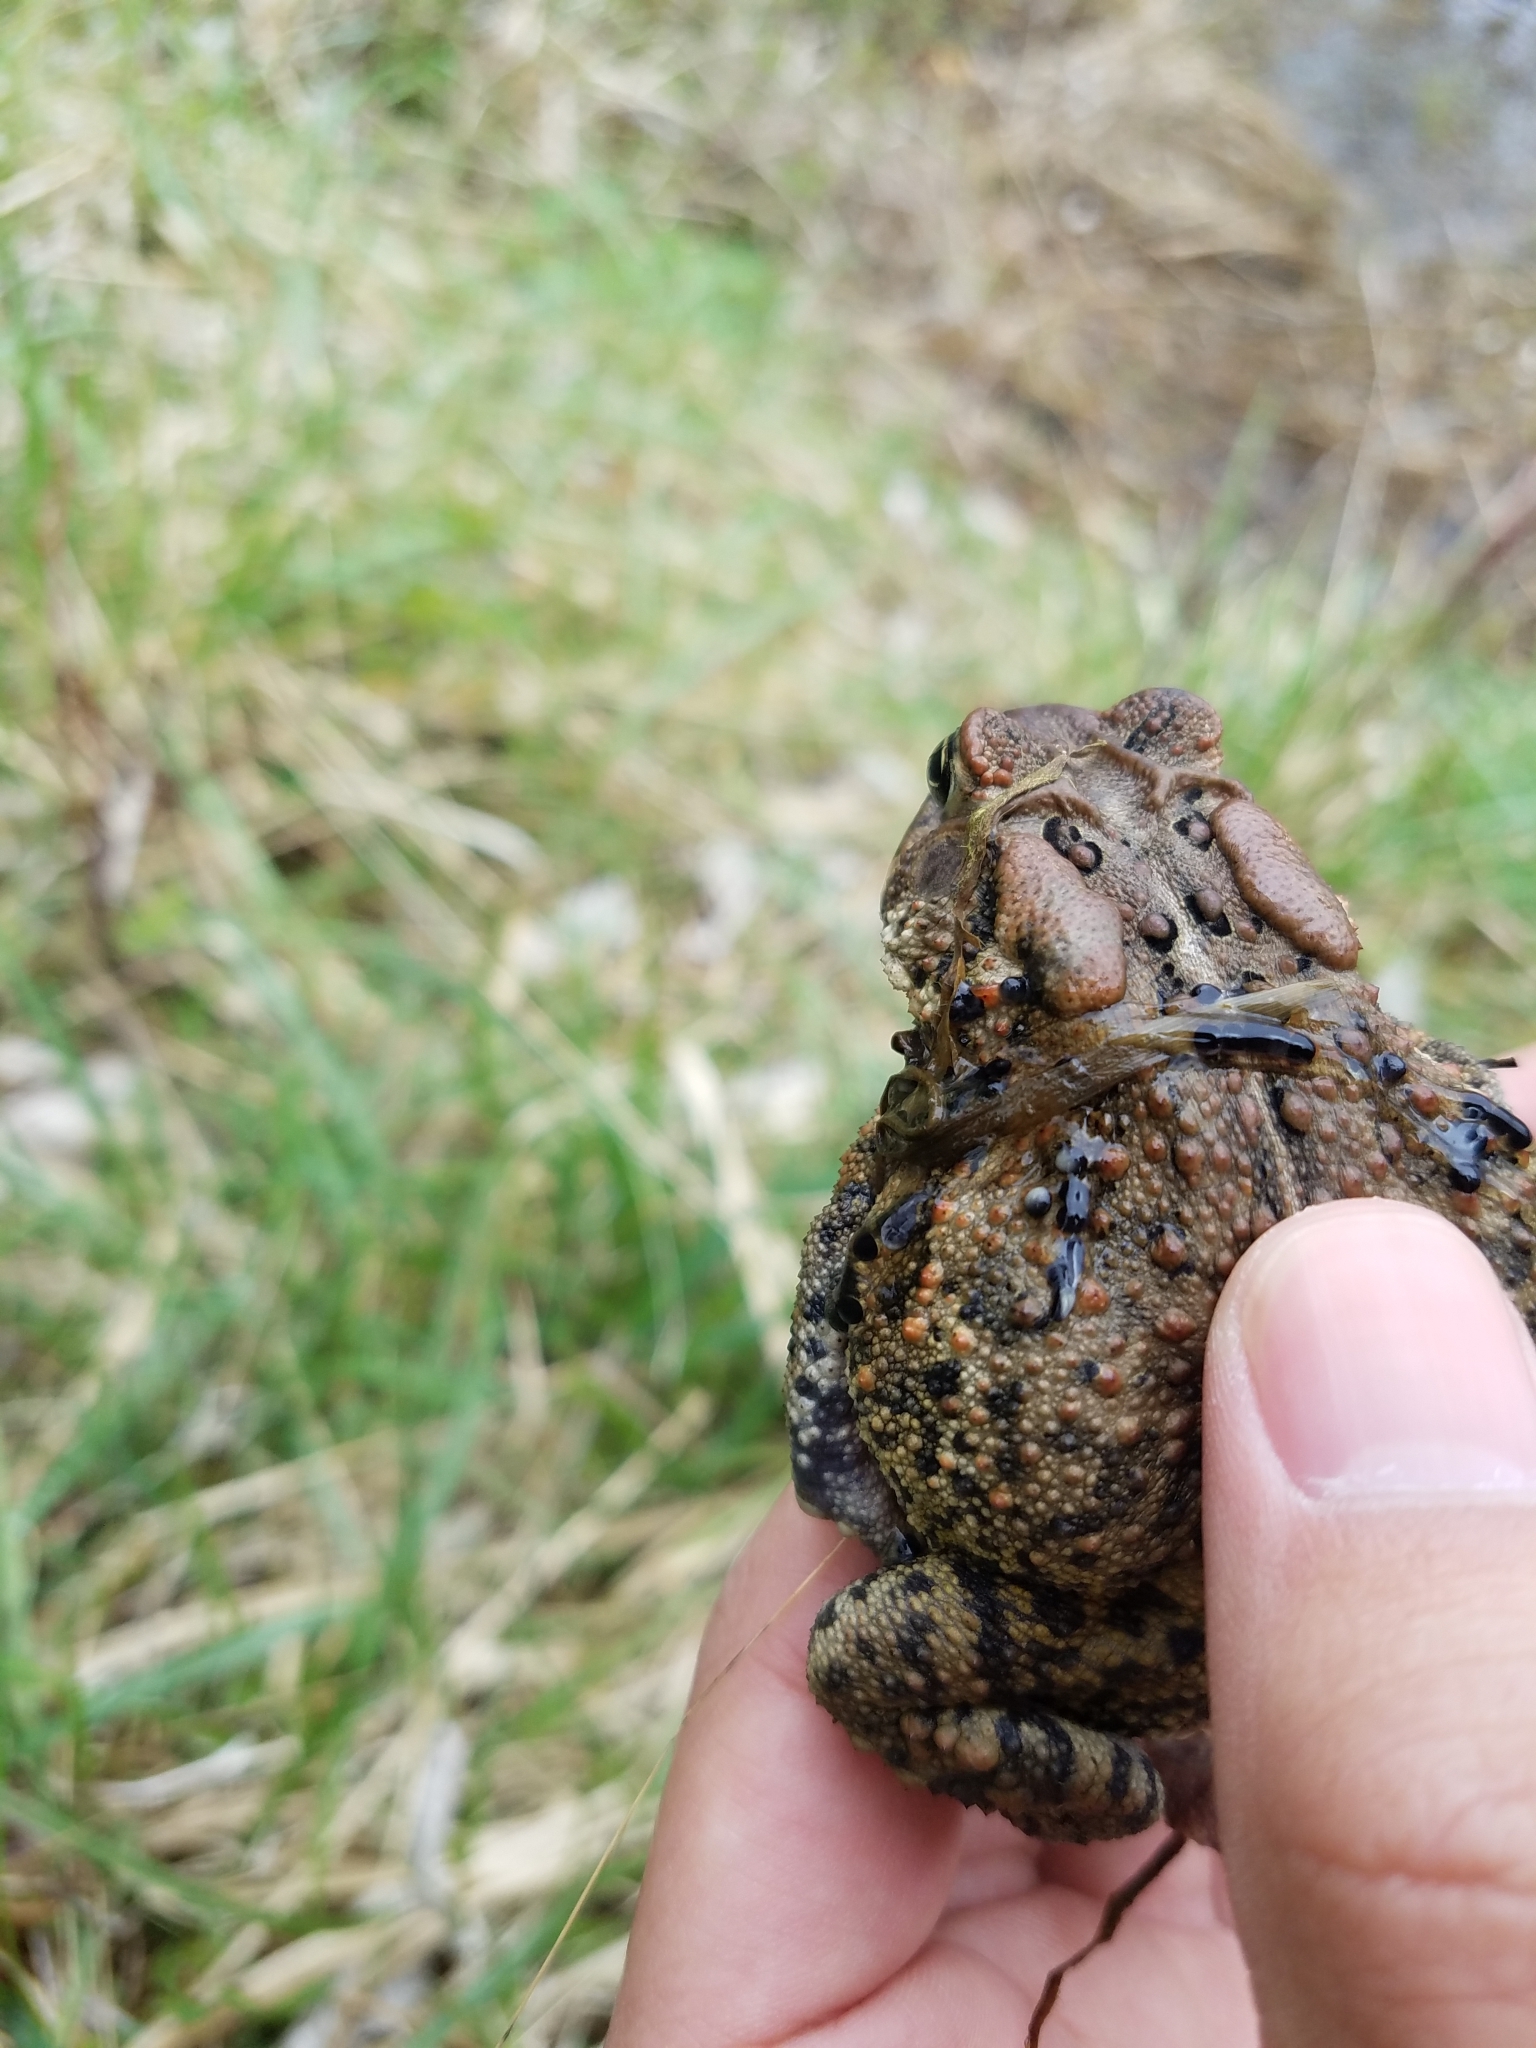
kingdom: Animalia
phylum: Chordata
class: Amphibia
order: Anura
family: Bufonidae
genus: Anaxyrus
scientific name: Anaxyrus americanus
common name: American toad
